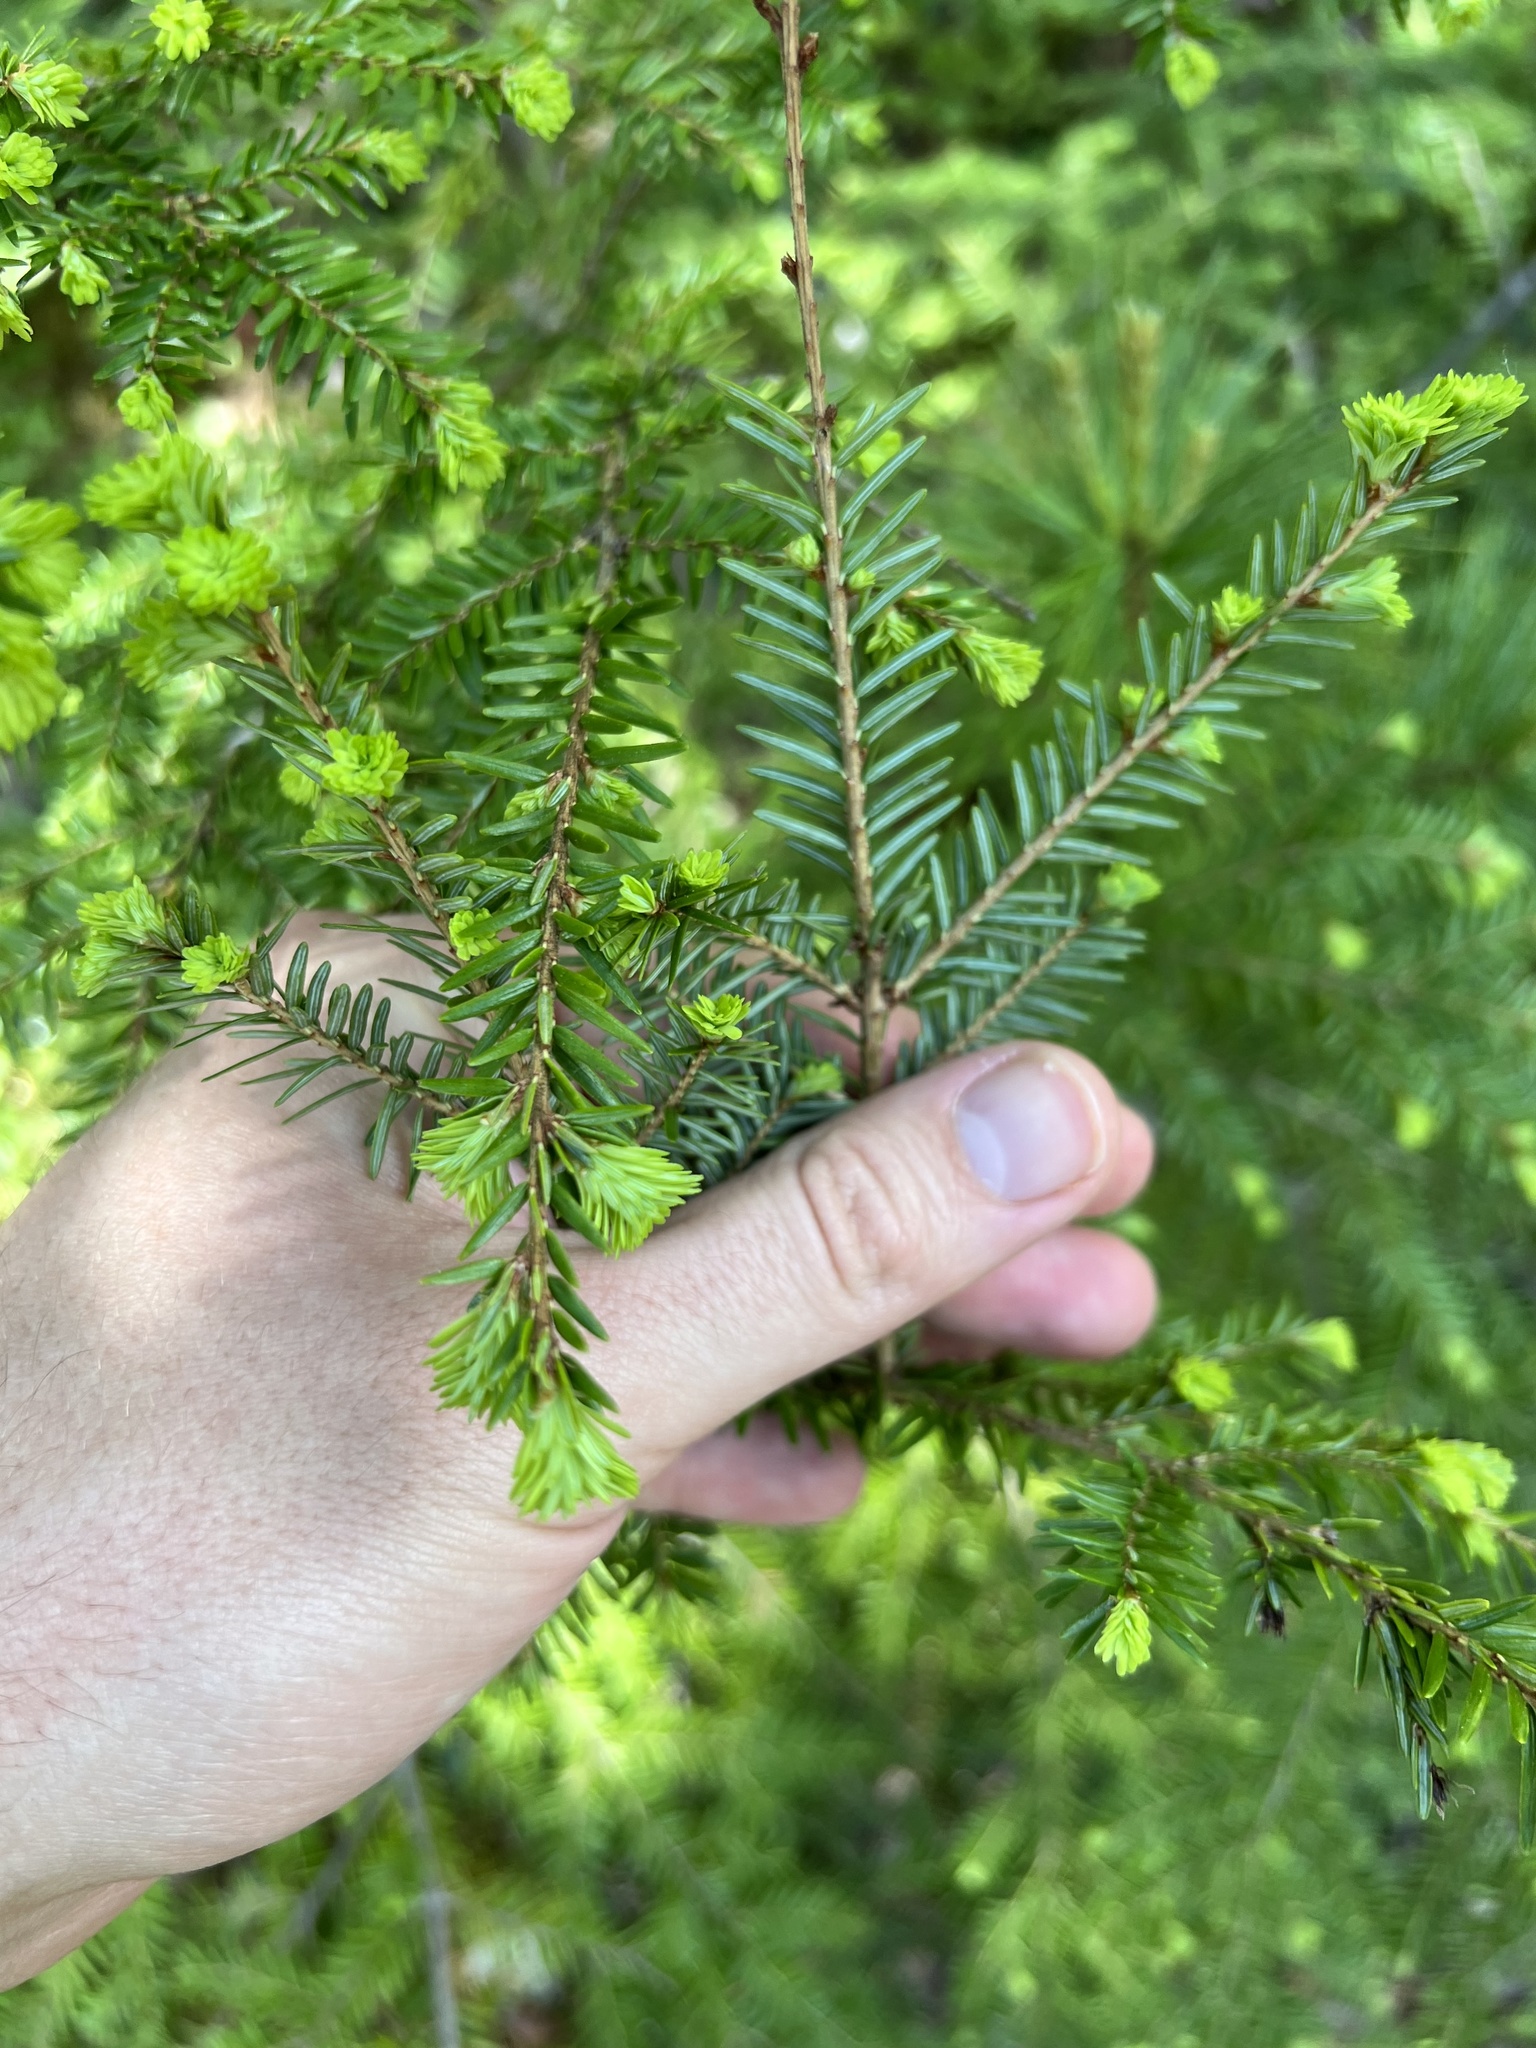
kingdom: Plantae
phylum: Tracheophyta
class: Pinopsida
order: Pinales
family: Pinaceae
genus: Tsuga
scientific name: Tsuga canadensis
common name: Eastern hemlock
